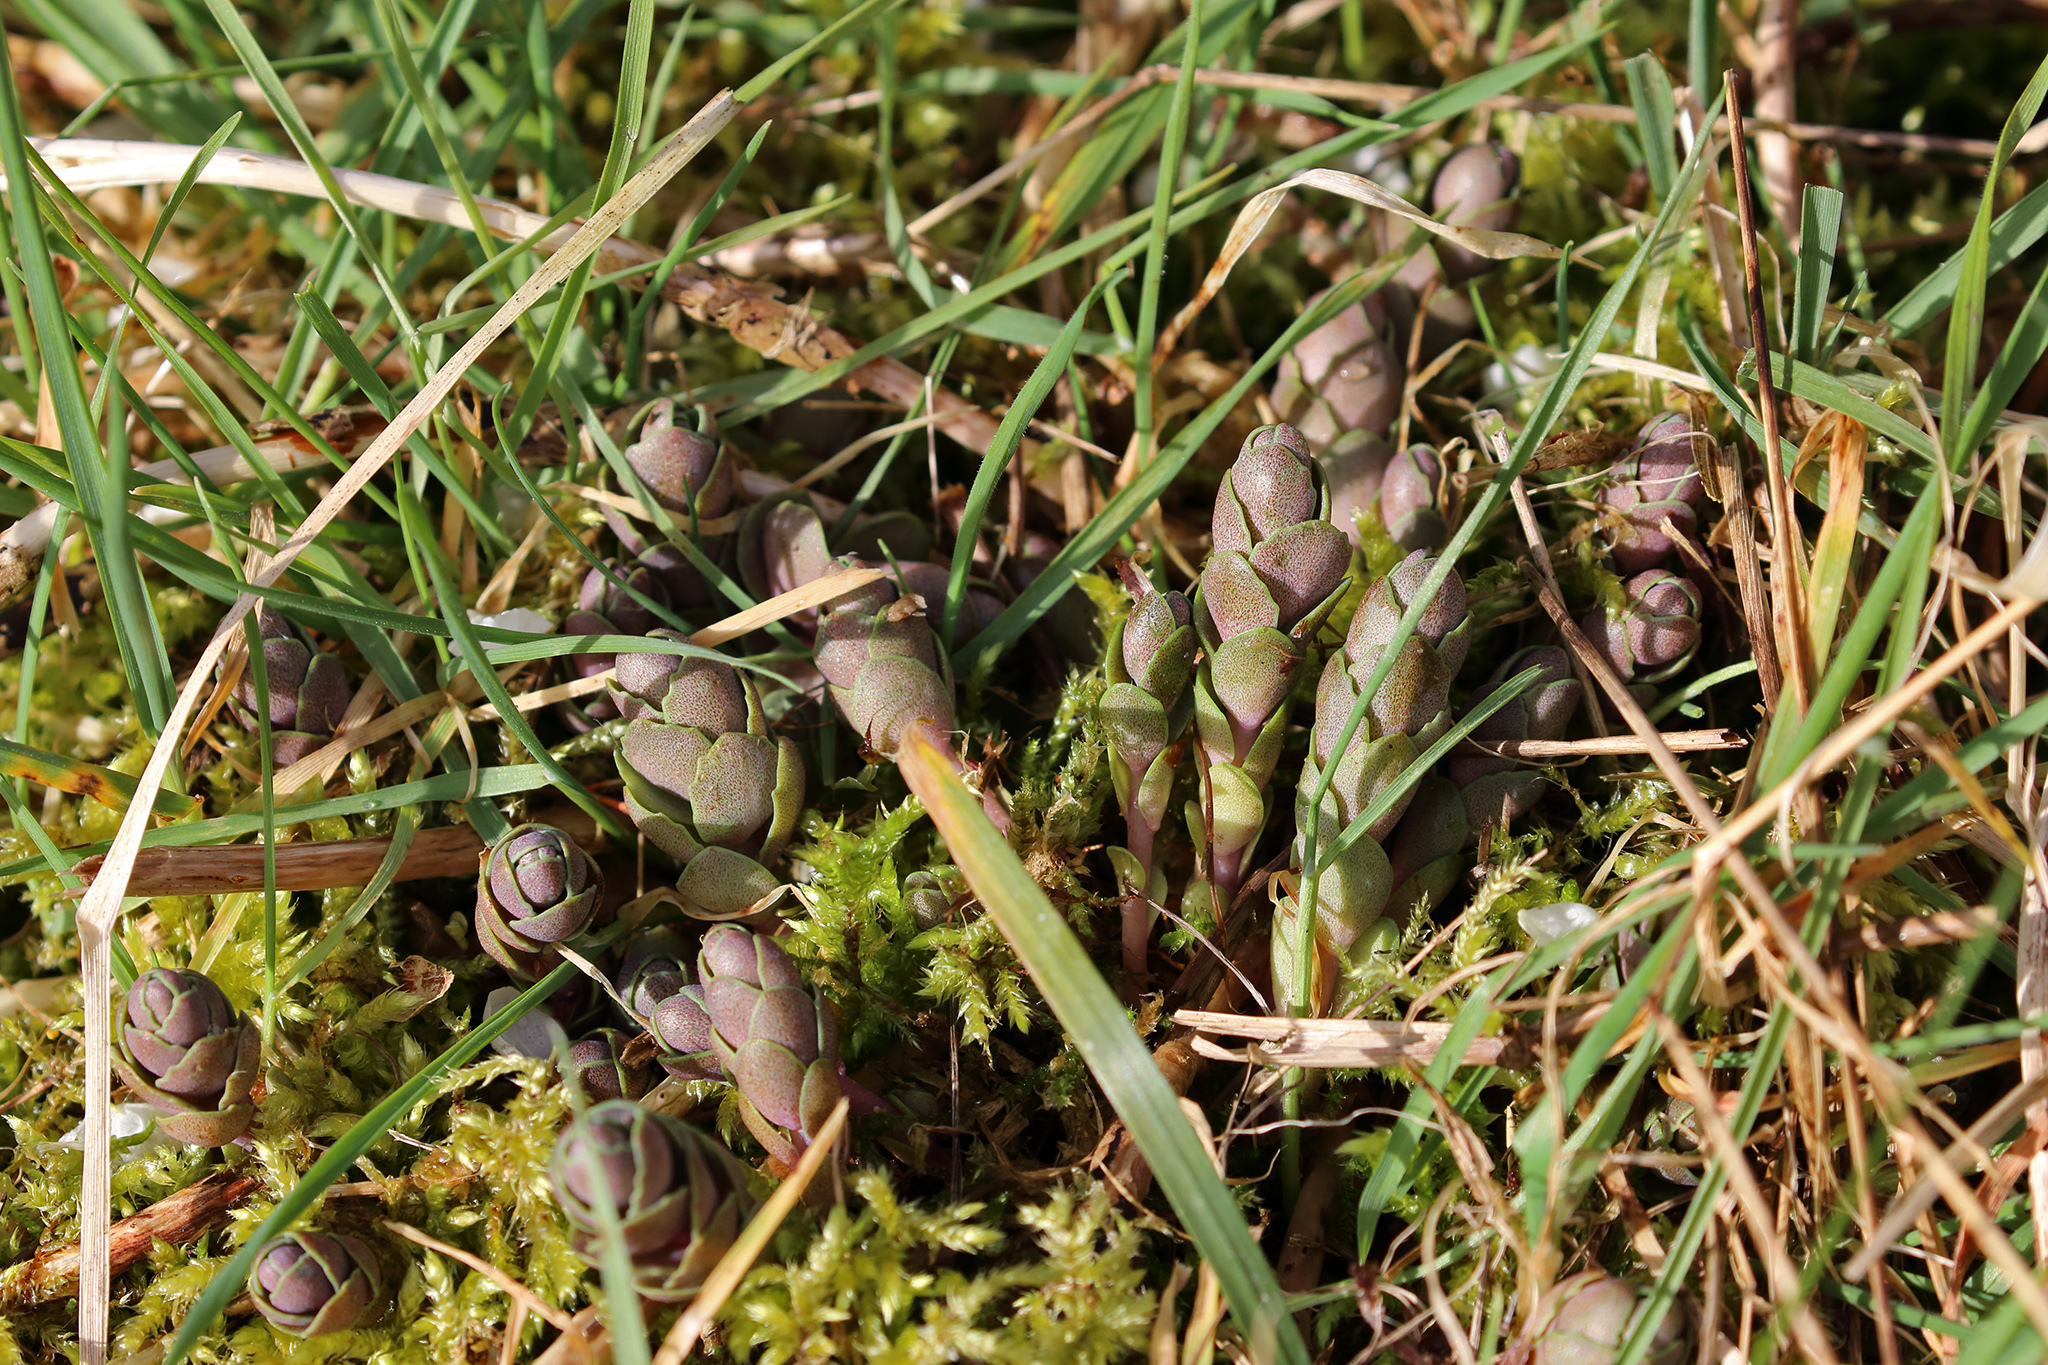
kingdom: Plantae
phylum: Tracheophyta
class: Magnoliopsida
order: Saxifragales
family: Crassulaceae
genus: Hylotelephium
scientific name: Hylotelephium maximum
